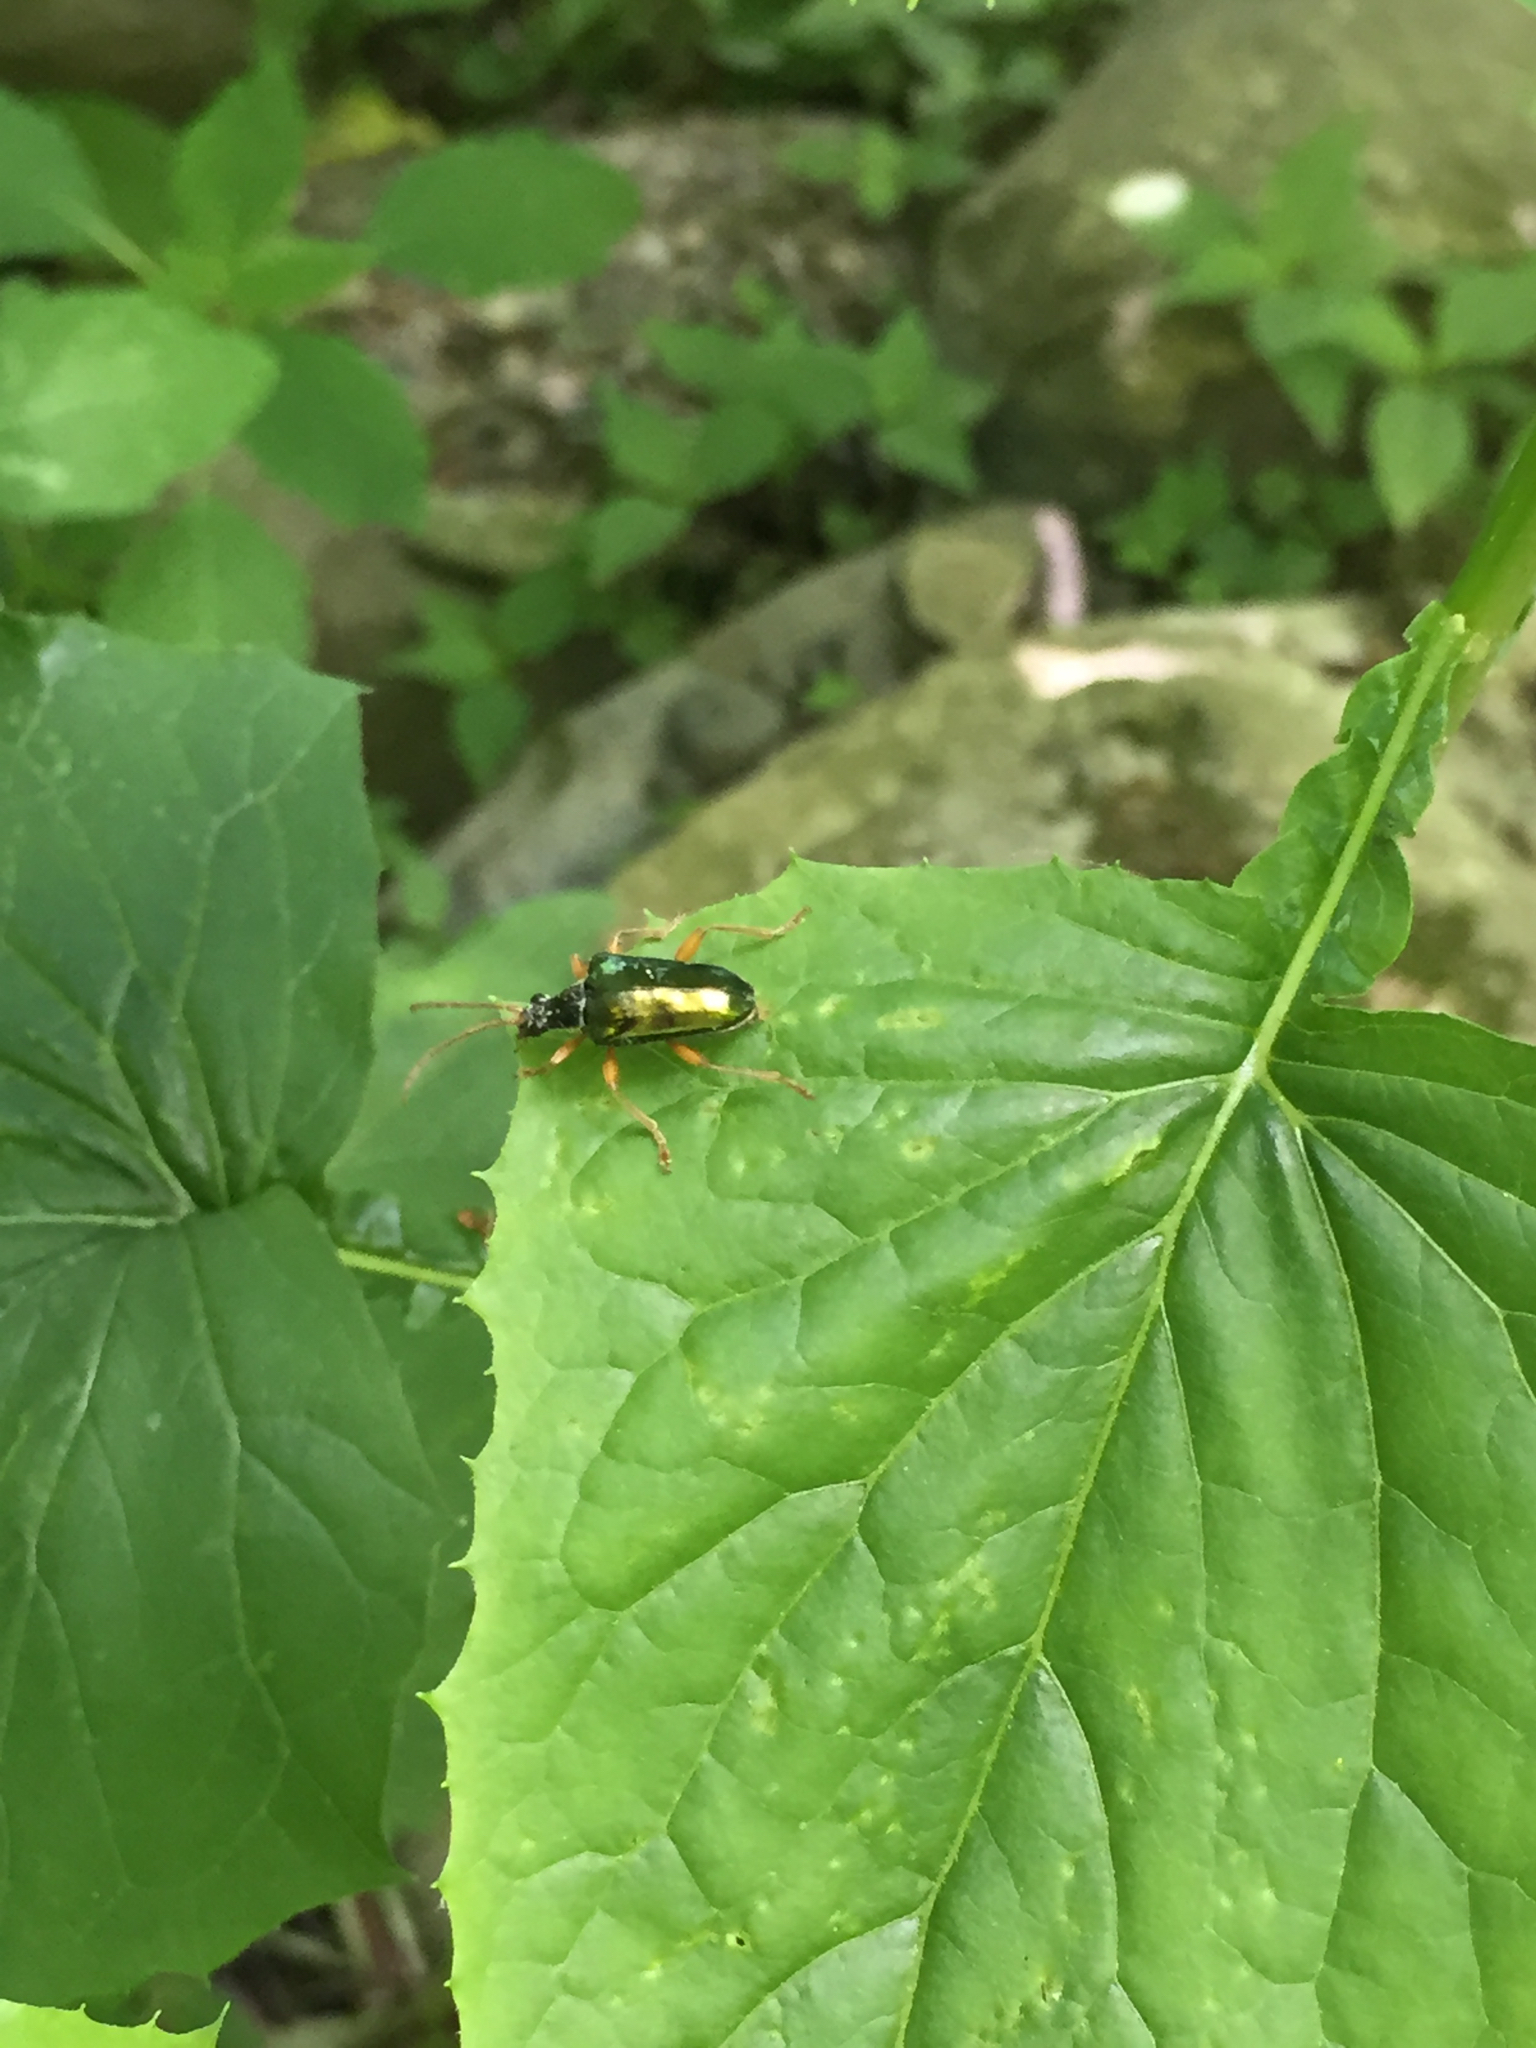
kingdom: Animalia
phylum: Arthropoda
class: Insecta
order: Coleoptera
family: Cerambycidae
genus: Gaurotes
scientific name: Gaurotes cyanipennis
